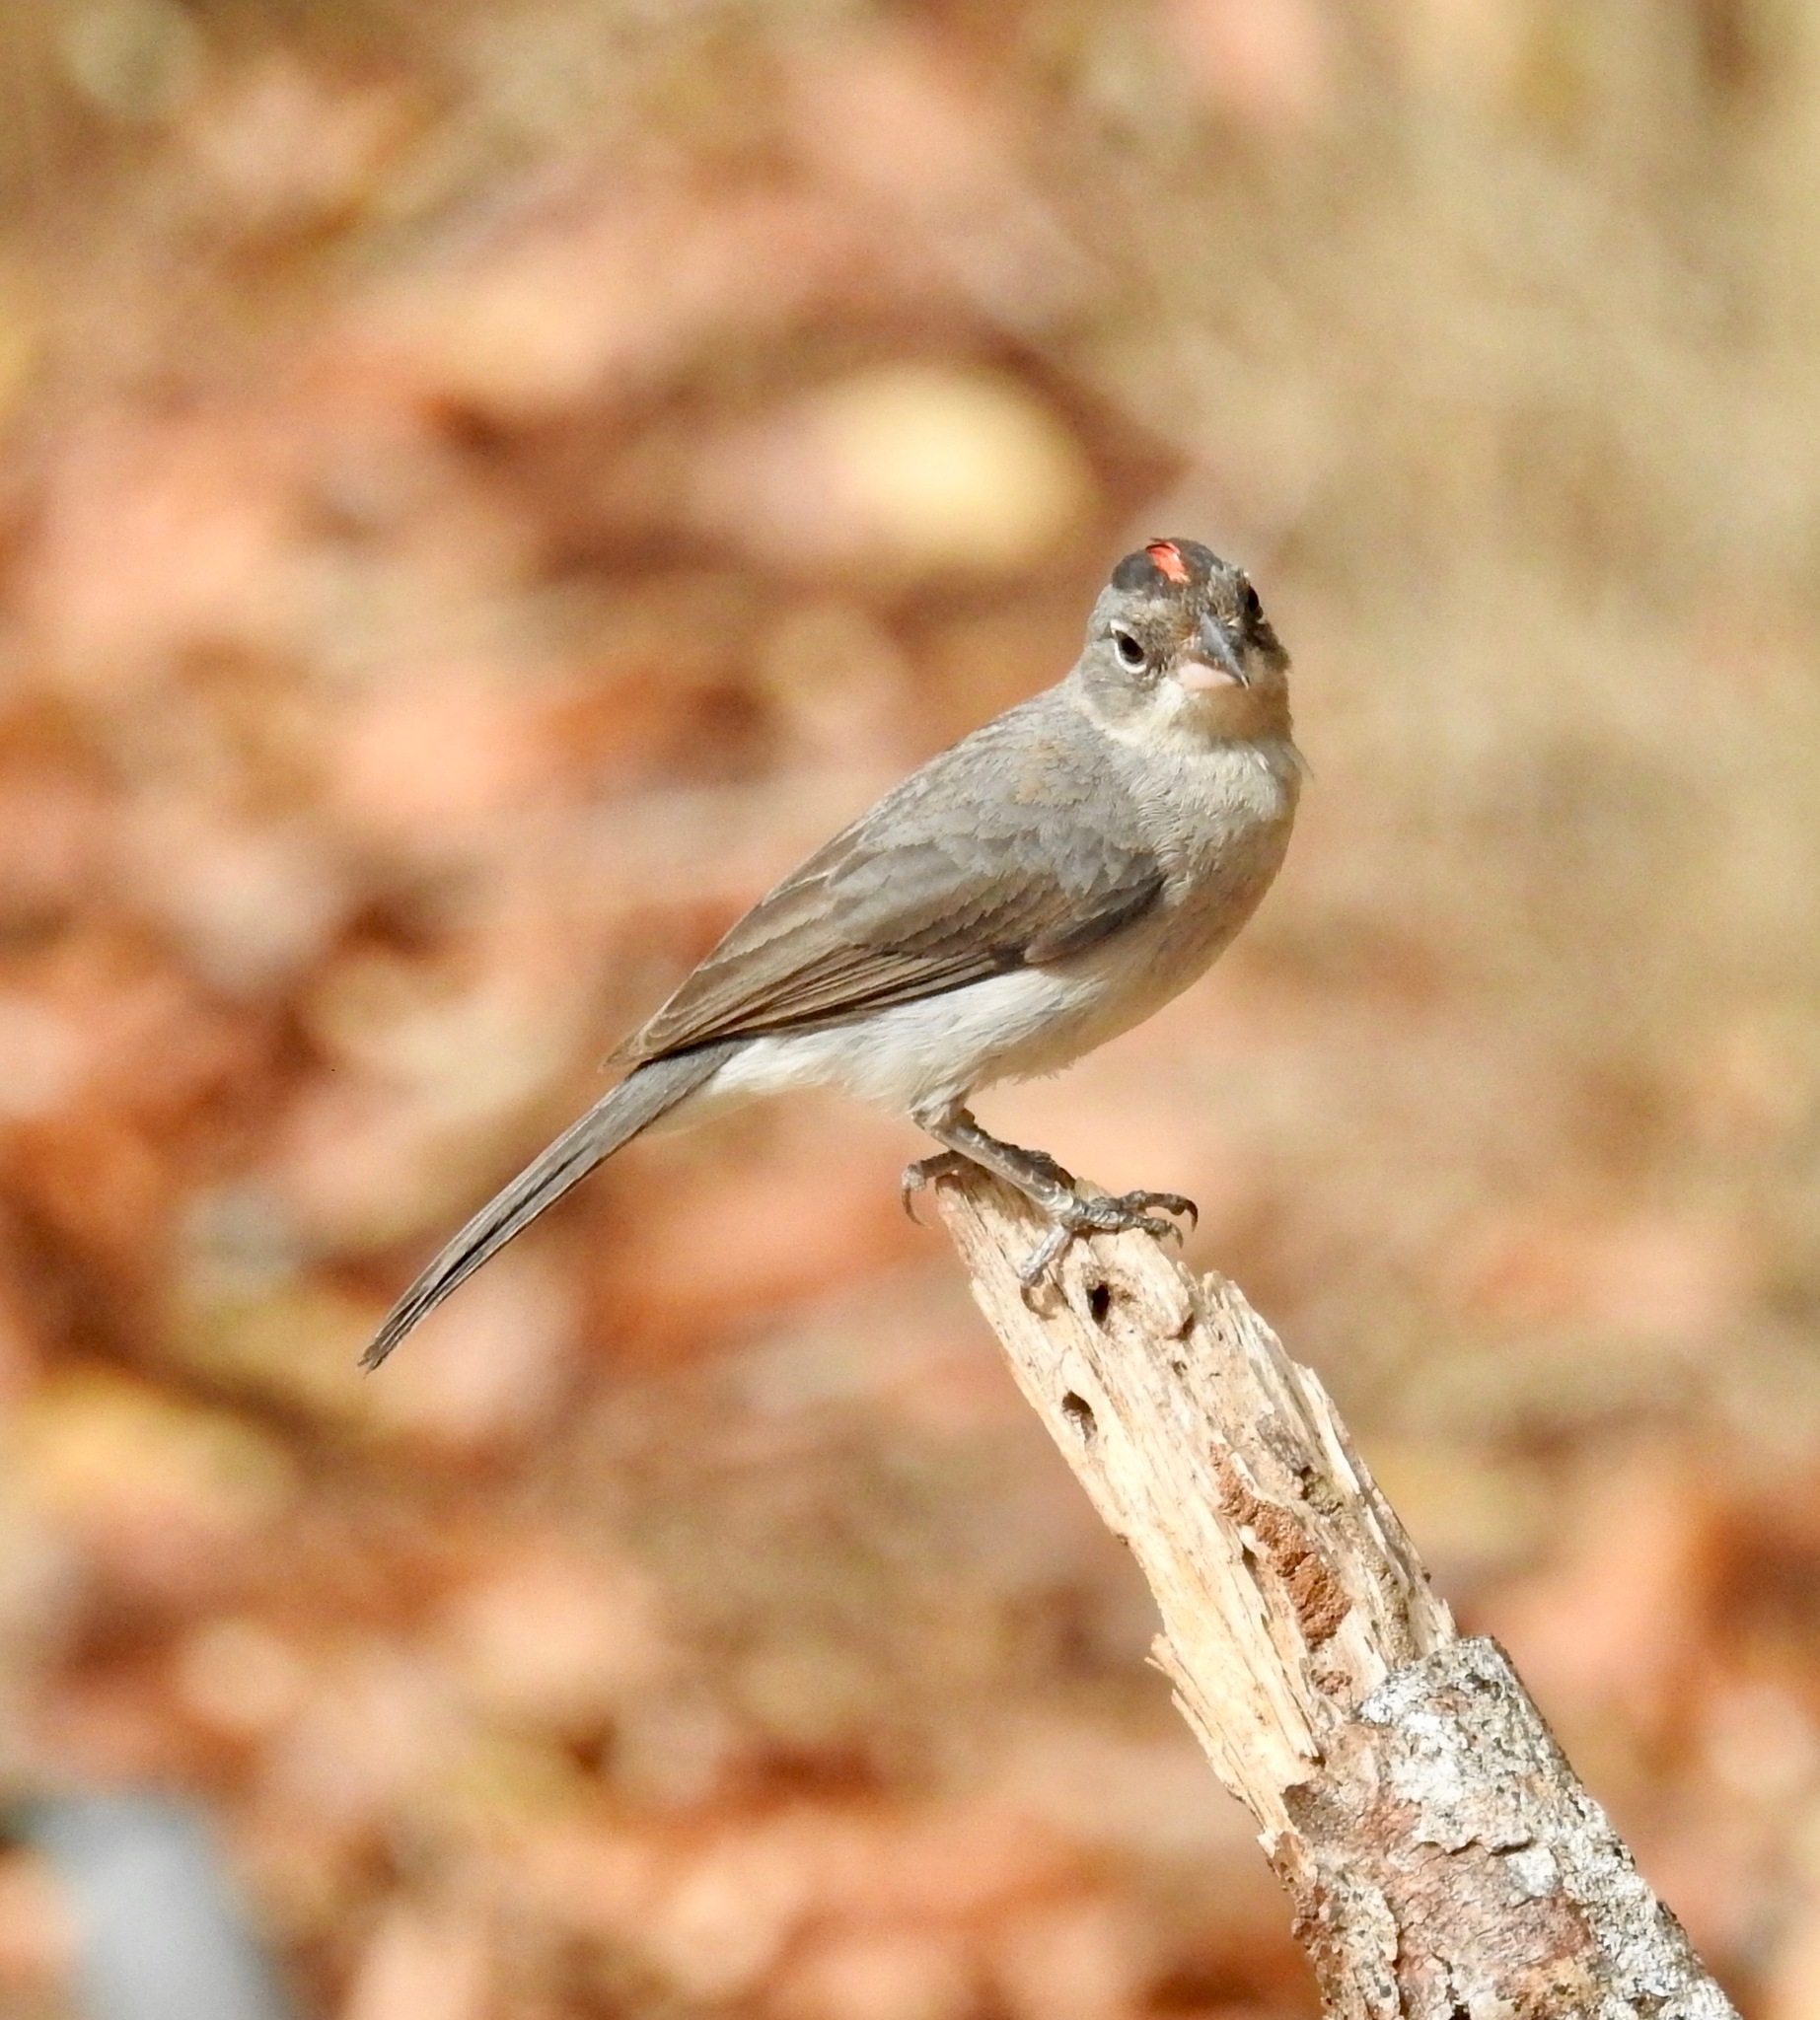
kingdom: Animalia
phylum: Chordata
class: Aves
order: Passeriformes
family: Thraupidae
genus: Coryphospingus
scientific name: Coryphospingus pileatus
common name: Grey pileated finch
